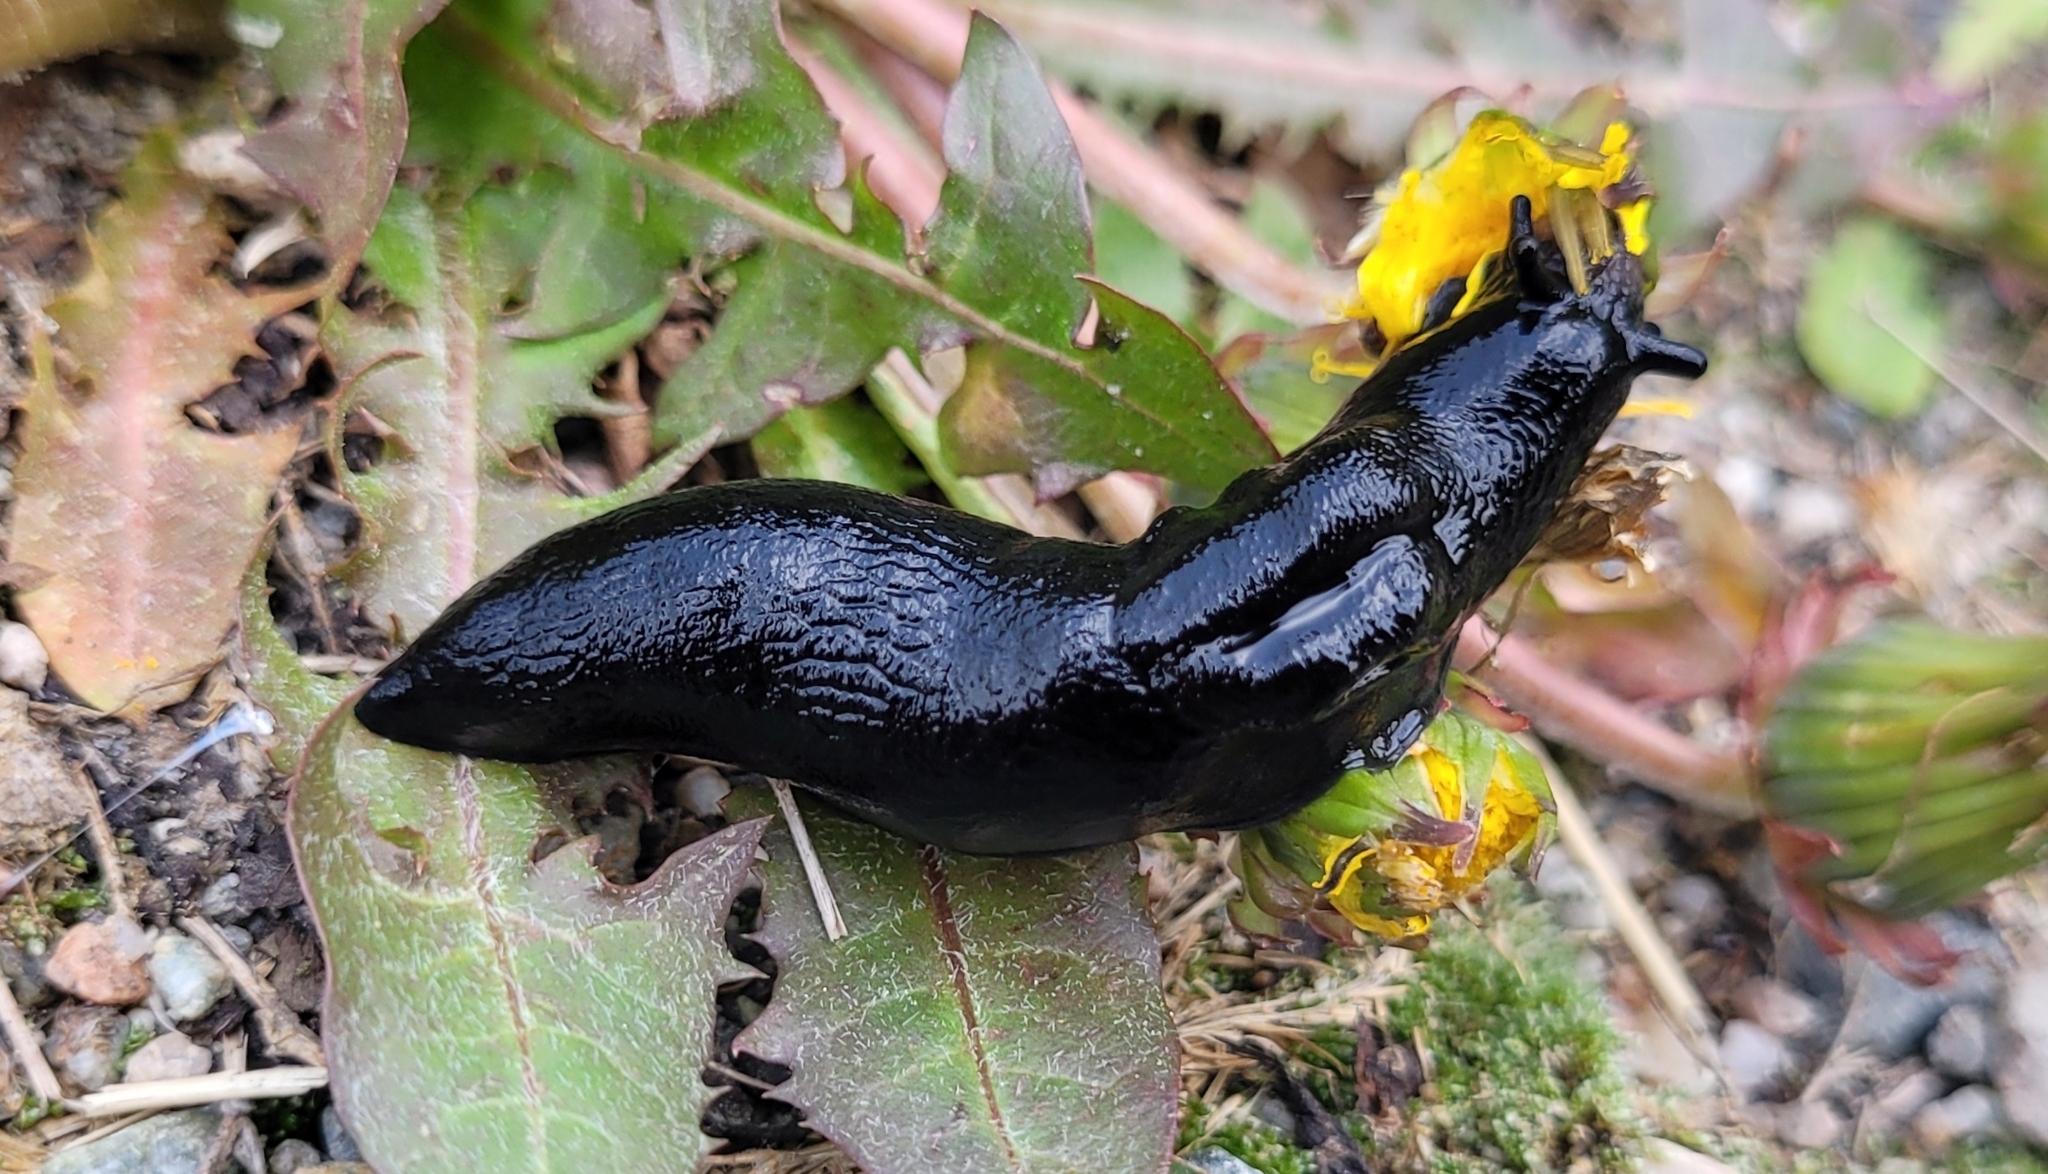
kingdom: Animalia
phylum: Mollusca
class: Gastropoda
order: Stylommatophora
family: Limacidae
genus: Turcomilax
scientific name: Turcomilax turkestanus
